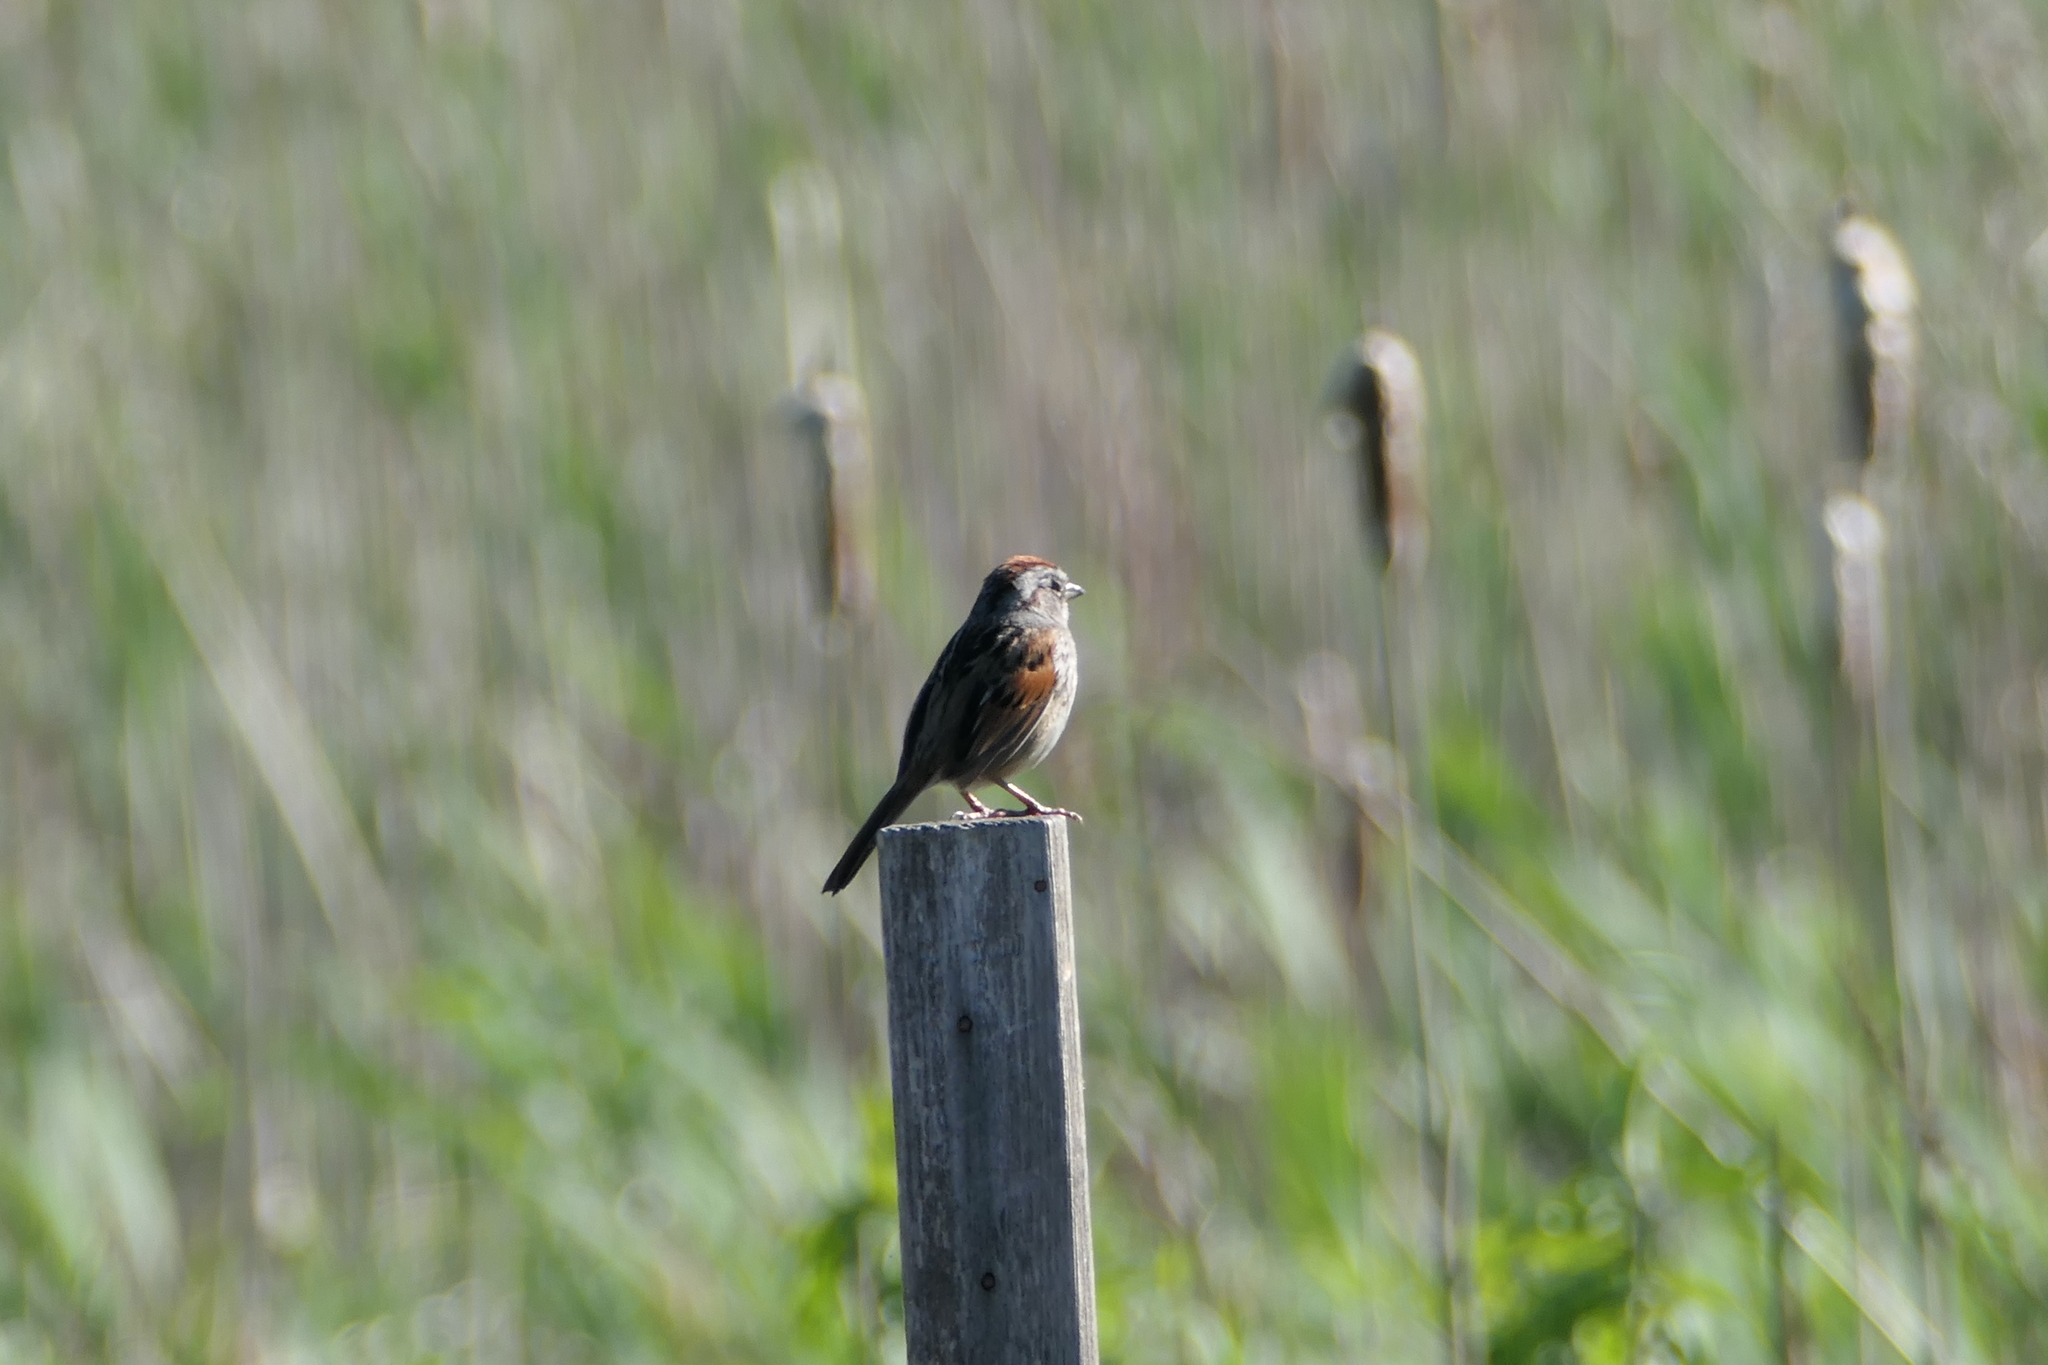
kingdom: Animalia
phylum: Chordata
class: Aves
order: Passeriformes
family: Passerellidae
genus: Melospiza
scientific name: Melospiza georgiana
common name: Swamp sparrow
